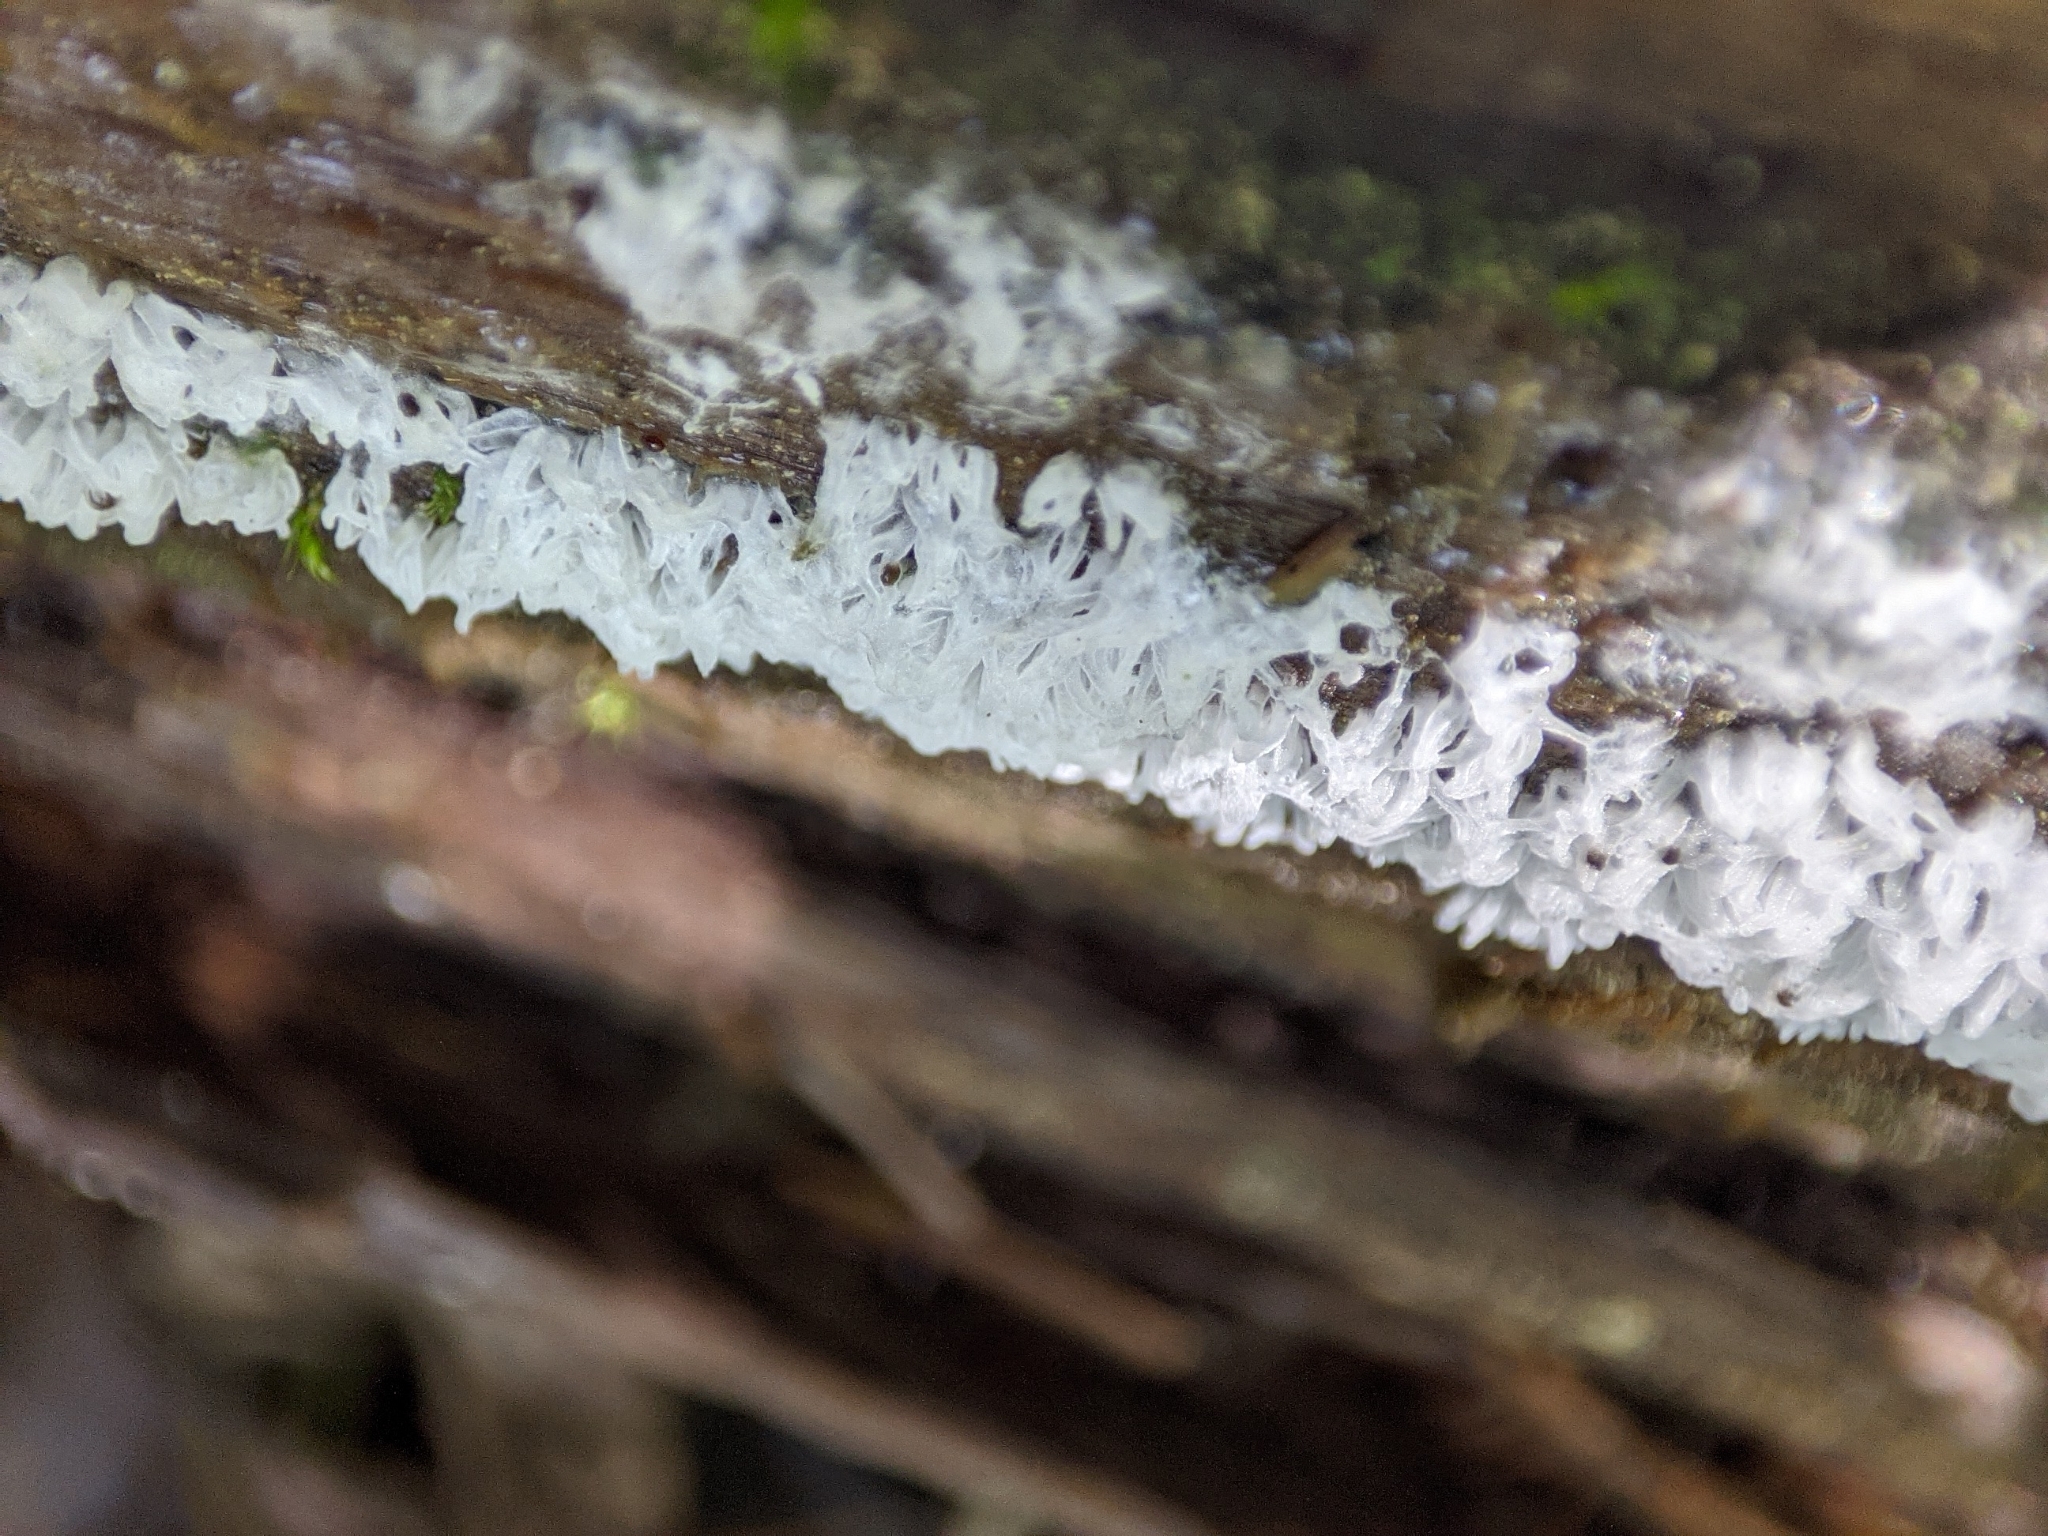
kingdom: Protozoa
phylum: Mycetozoa
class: Protosteliomycetes
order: Ceratiomyxales
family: Ceratiomyxaceae
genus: Ceratiomyxa
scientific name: Ceratiomyxa fruticulosa
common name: Honeycomb coral slime mold
